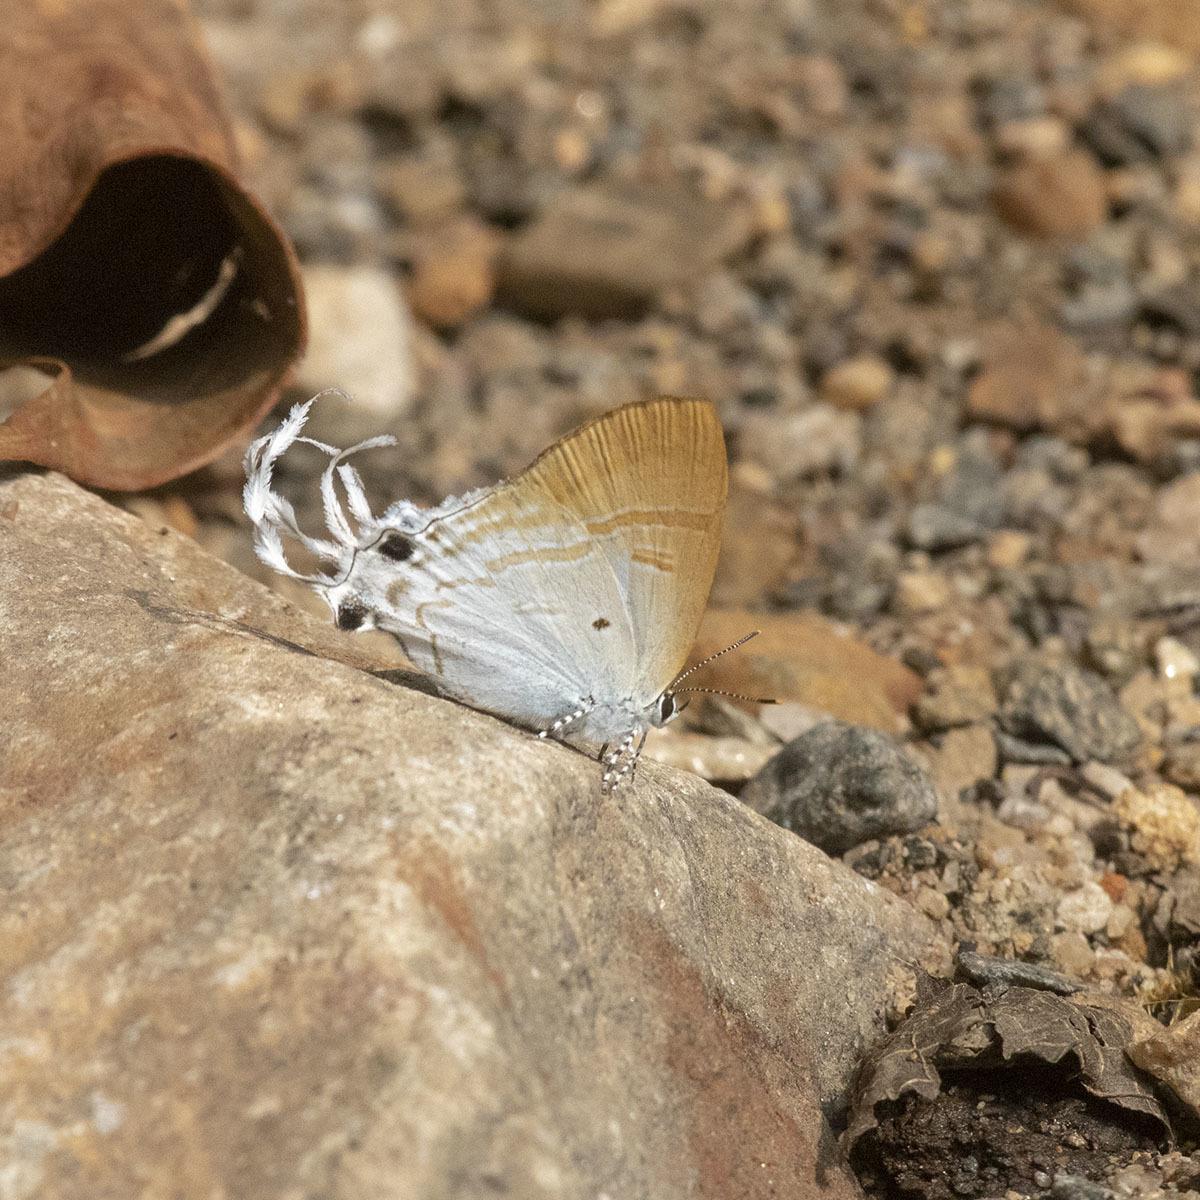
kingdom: Animalia
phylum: Arthropoda
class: Insecta
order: Lepidoptera
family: Lycaenidae
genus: Zeltus
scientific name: Zeltus amasa
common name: Fluffy tit
